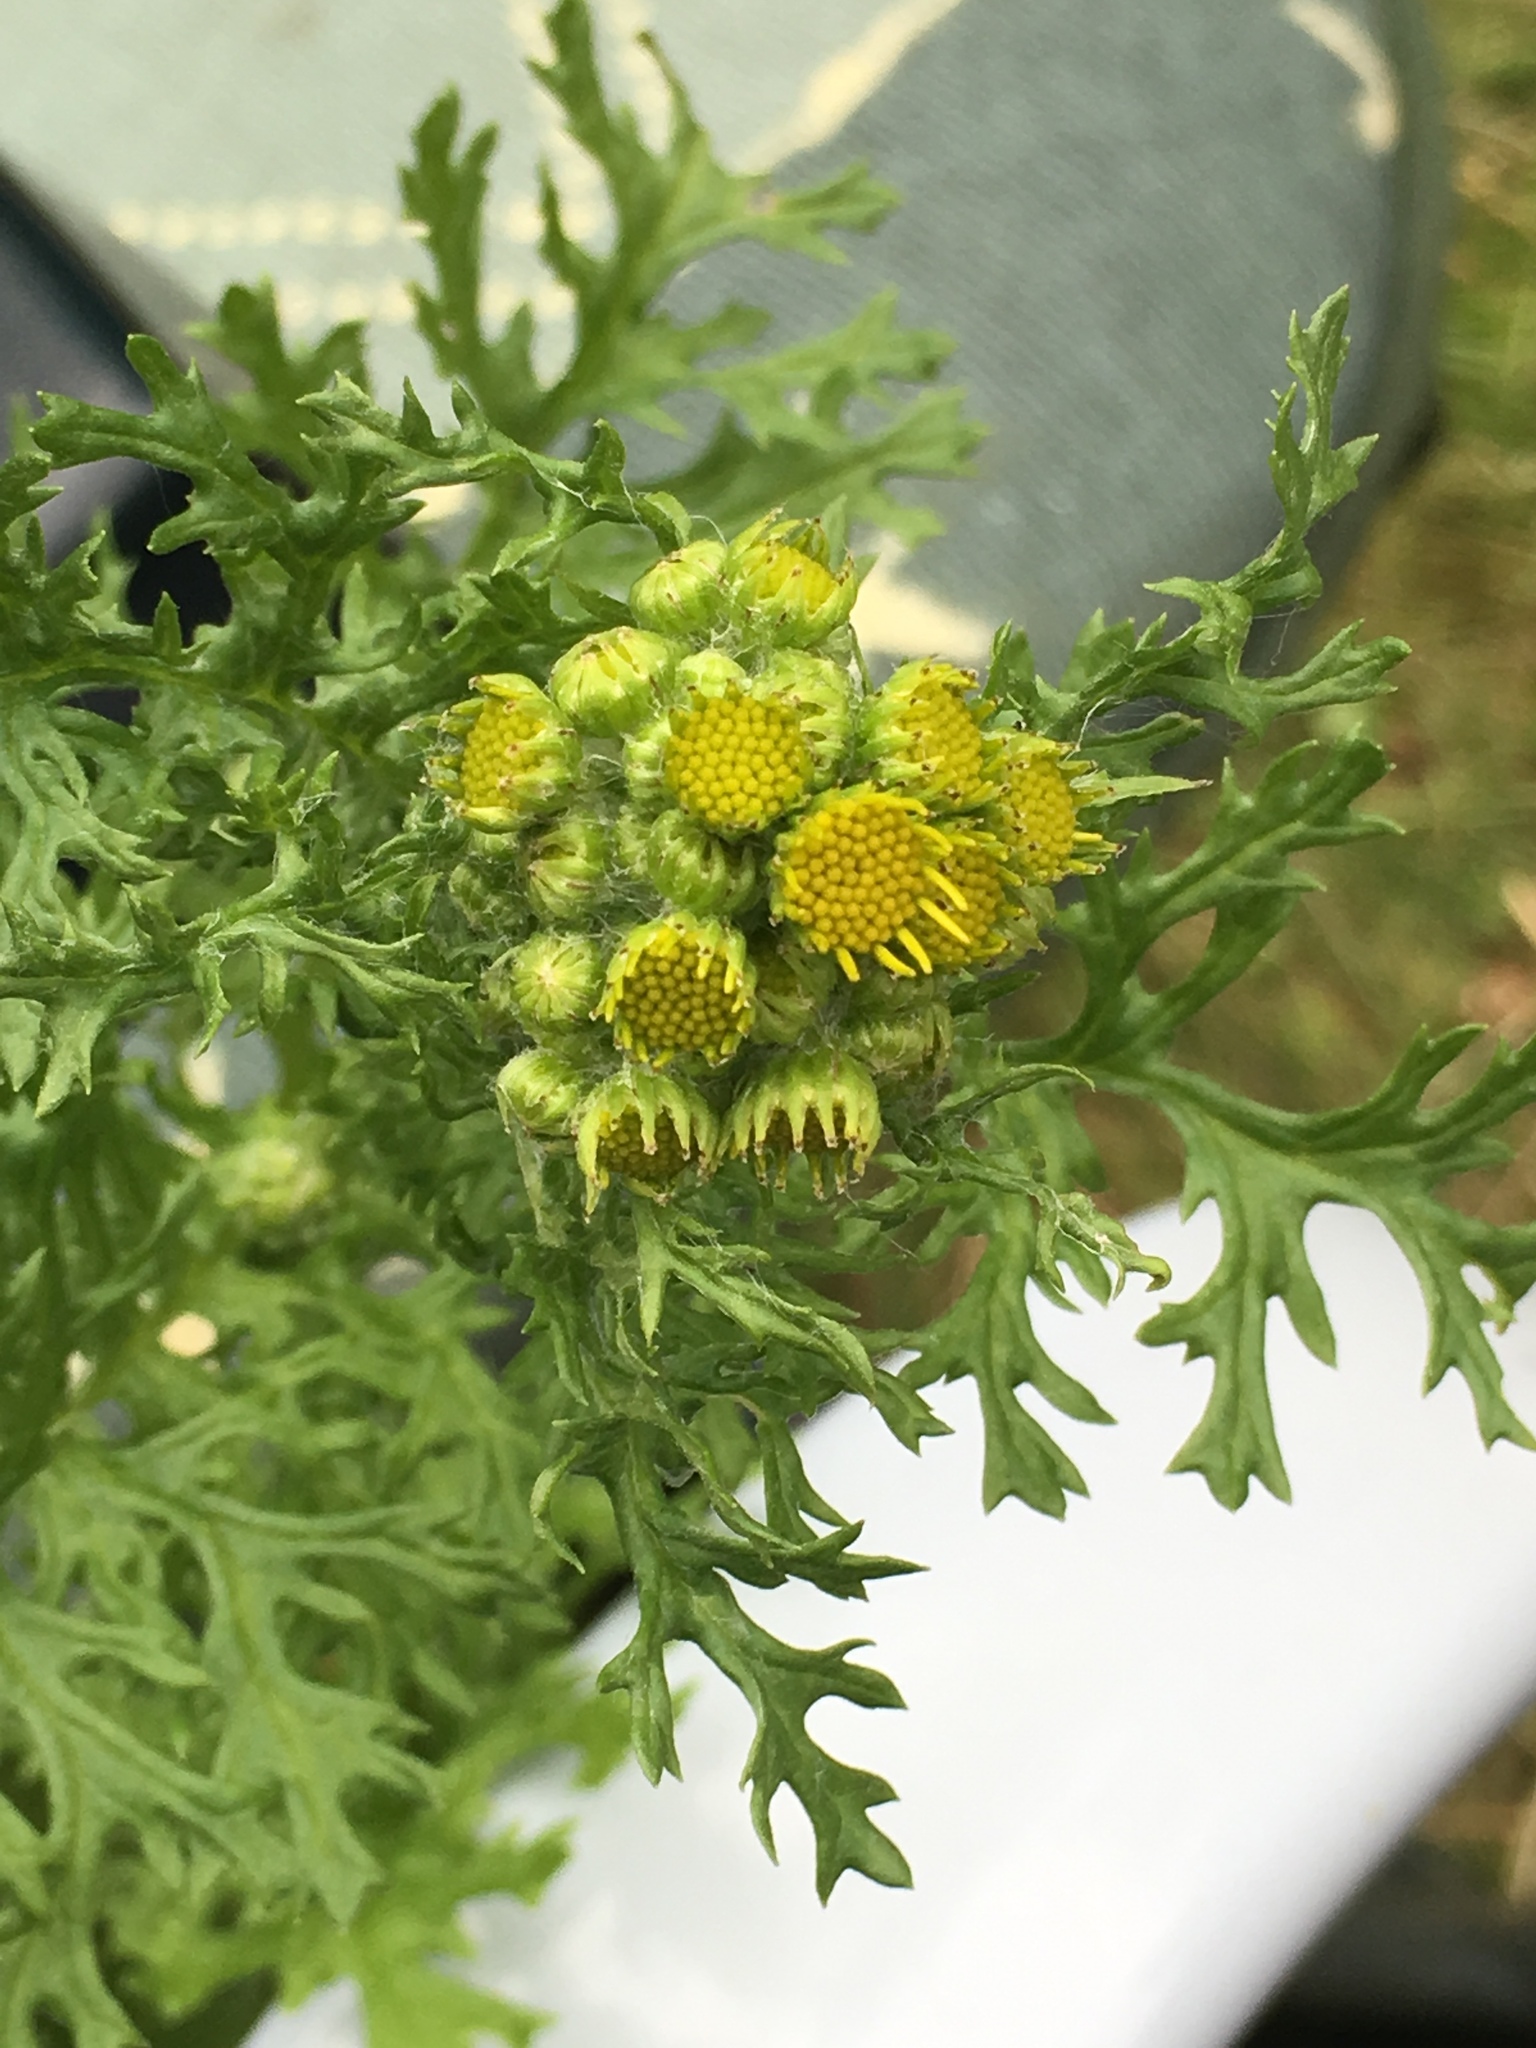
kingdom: Plantae
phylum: Tracheophyta
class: Magnoliopsida
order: Asterales
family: Asteraceae
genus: Jacobaea
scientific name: Jacobaea vulgaris
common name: Stinking willie
